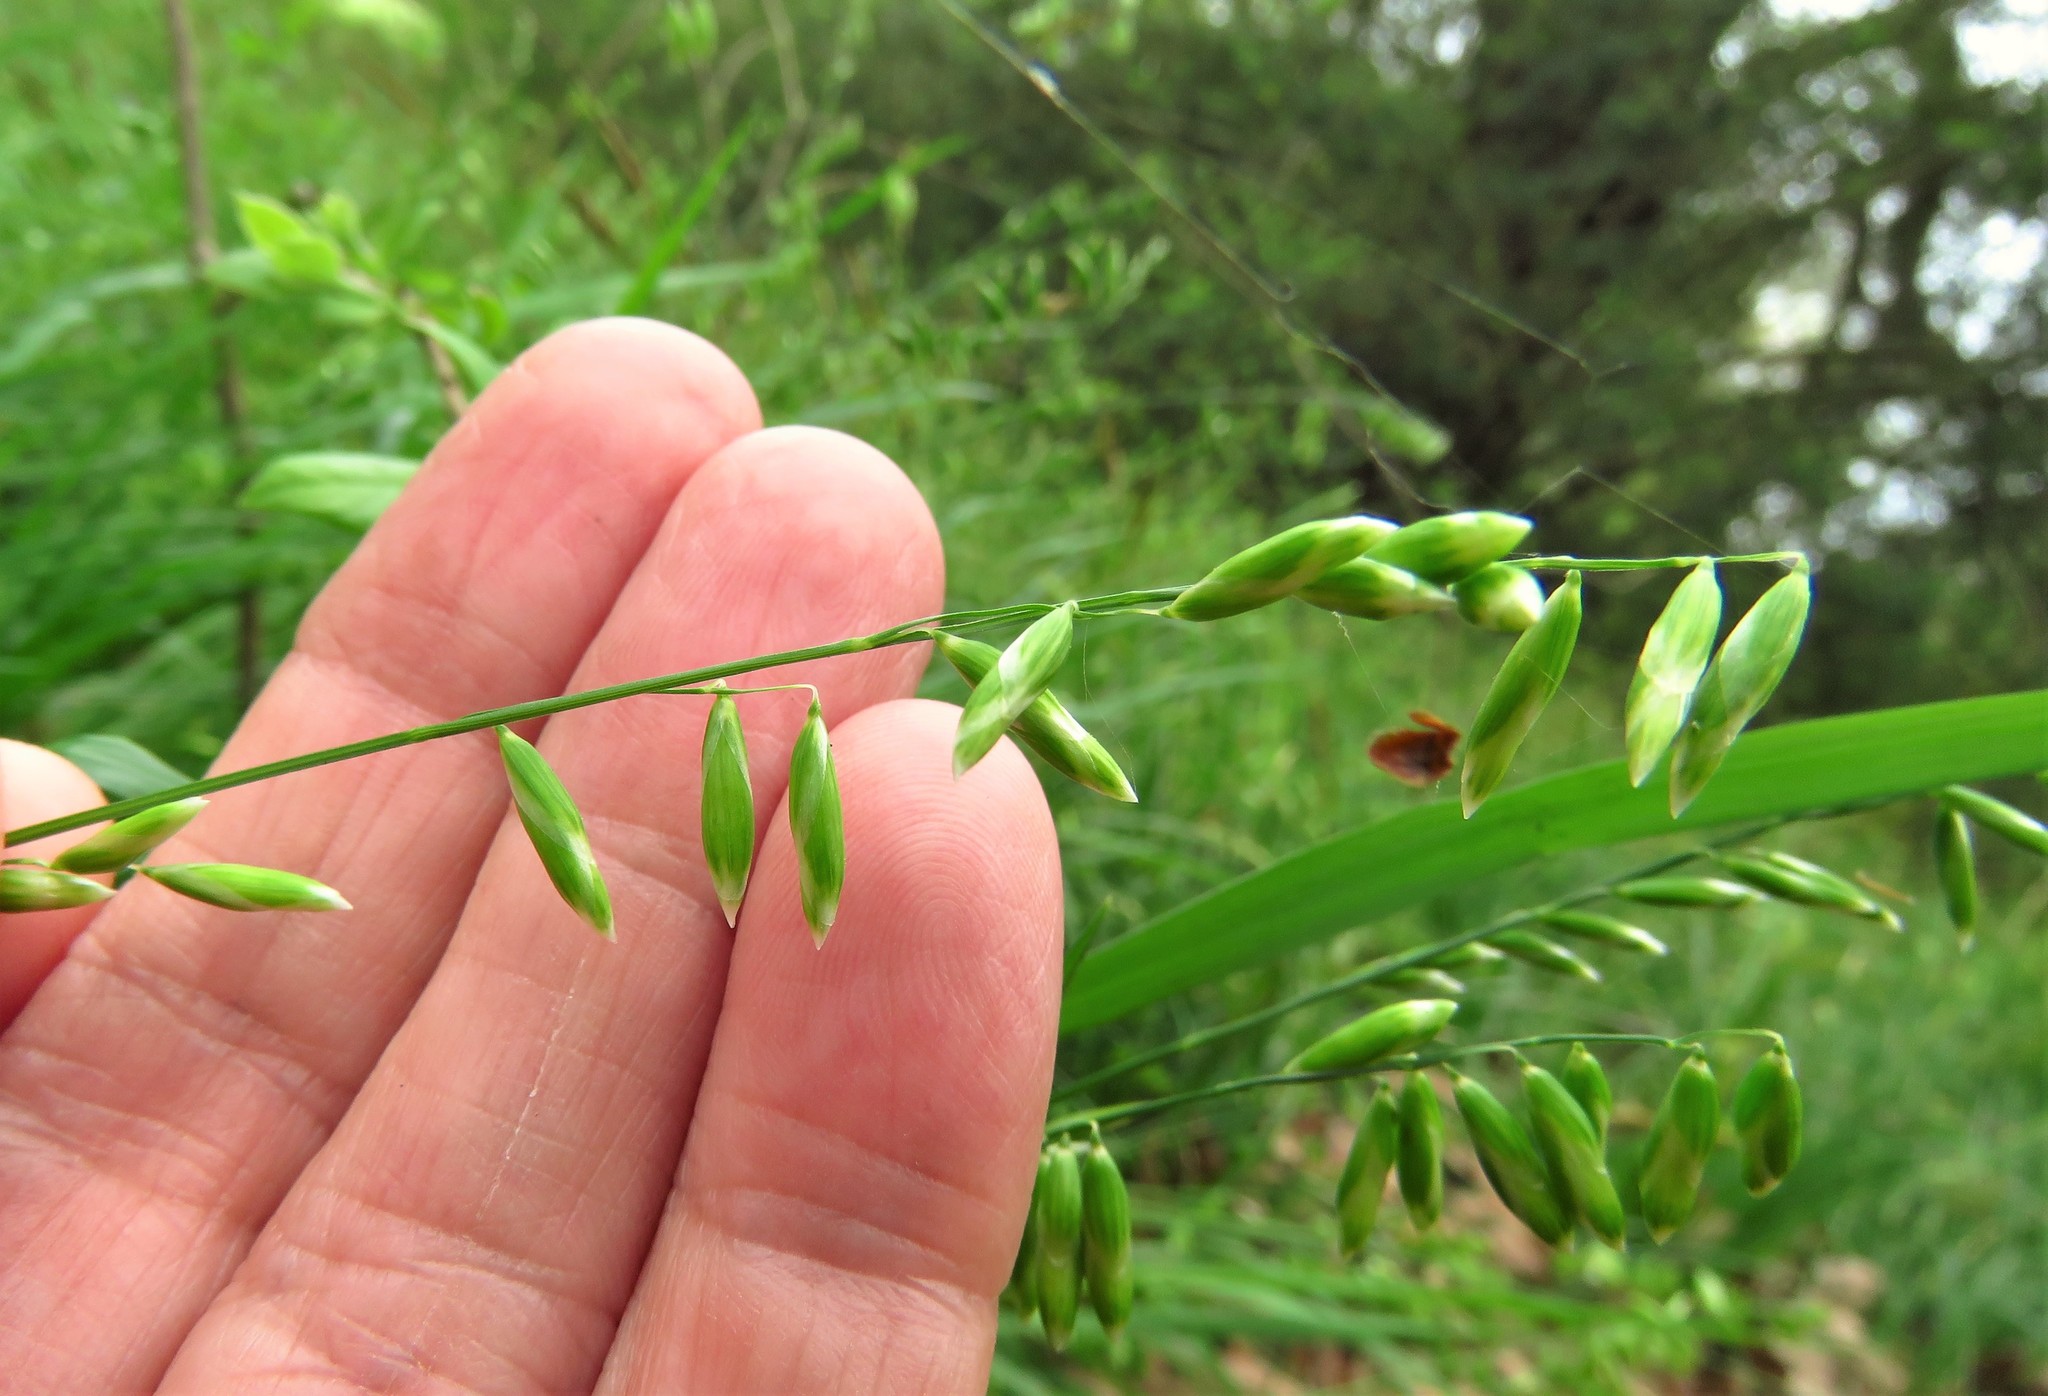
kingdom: Plantae
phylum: Tracheophyta
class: Liliopsida
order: Poales
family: Poaceae
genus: Melica
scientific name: Melica mutica
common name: Two-flower melic
